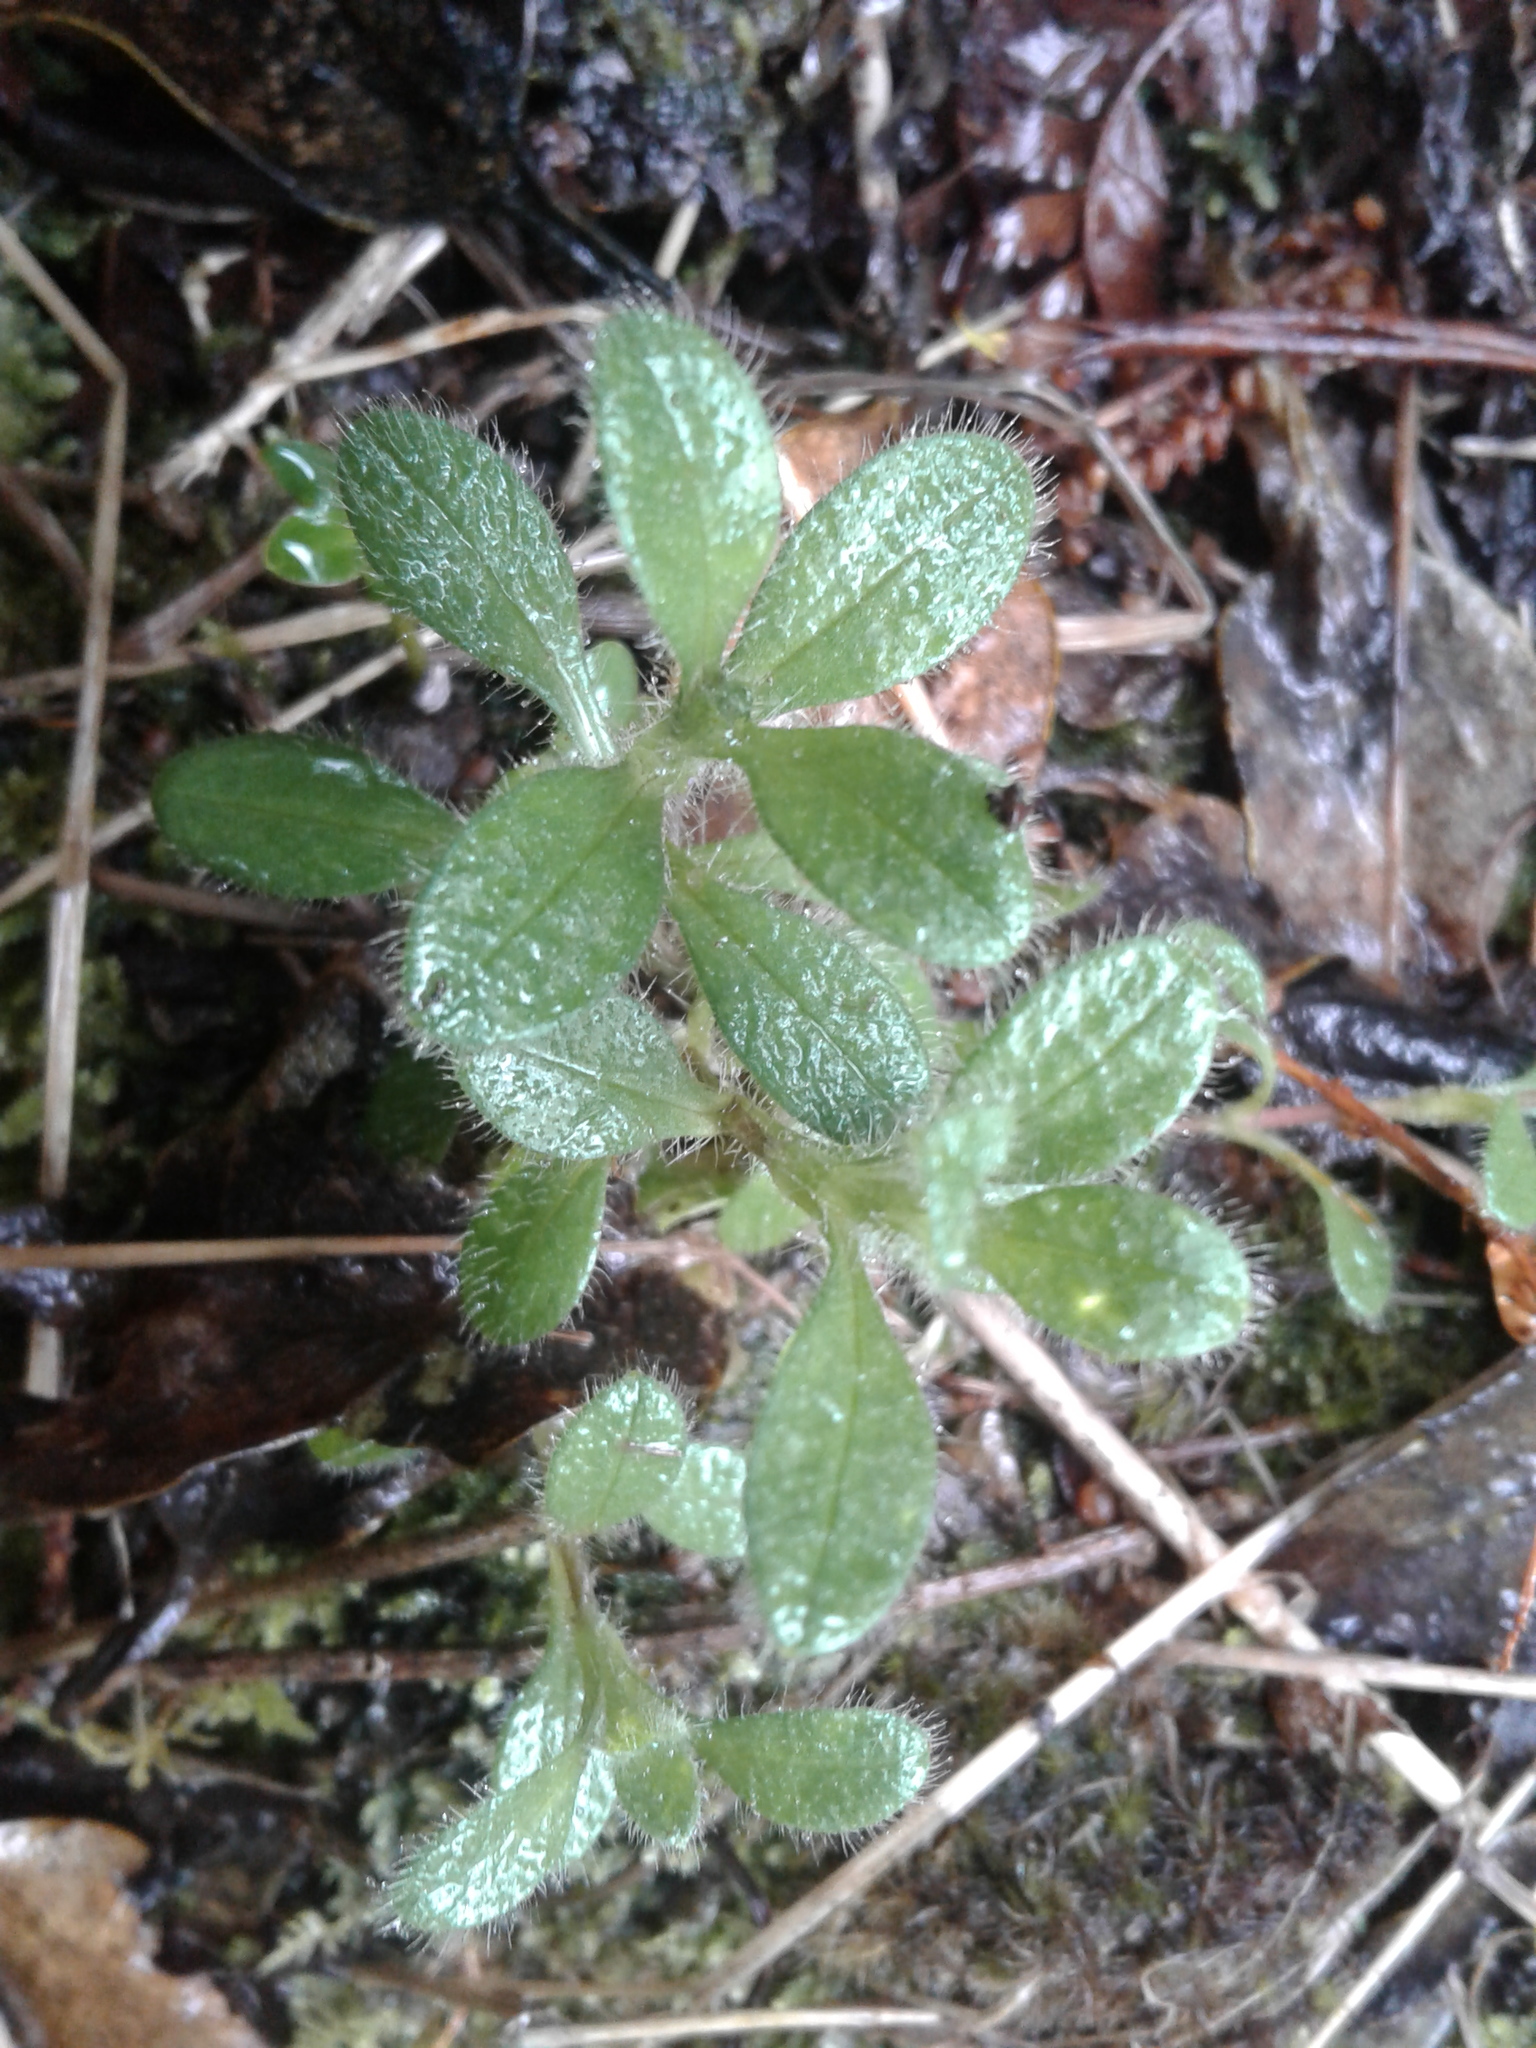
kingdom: Plantae
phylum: Tracheophyta
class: Magnoliopsida
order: Caryophyllales
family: Caryophyllaceae
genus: Cerastium
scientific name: Cerastium
